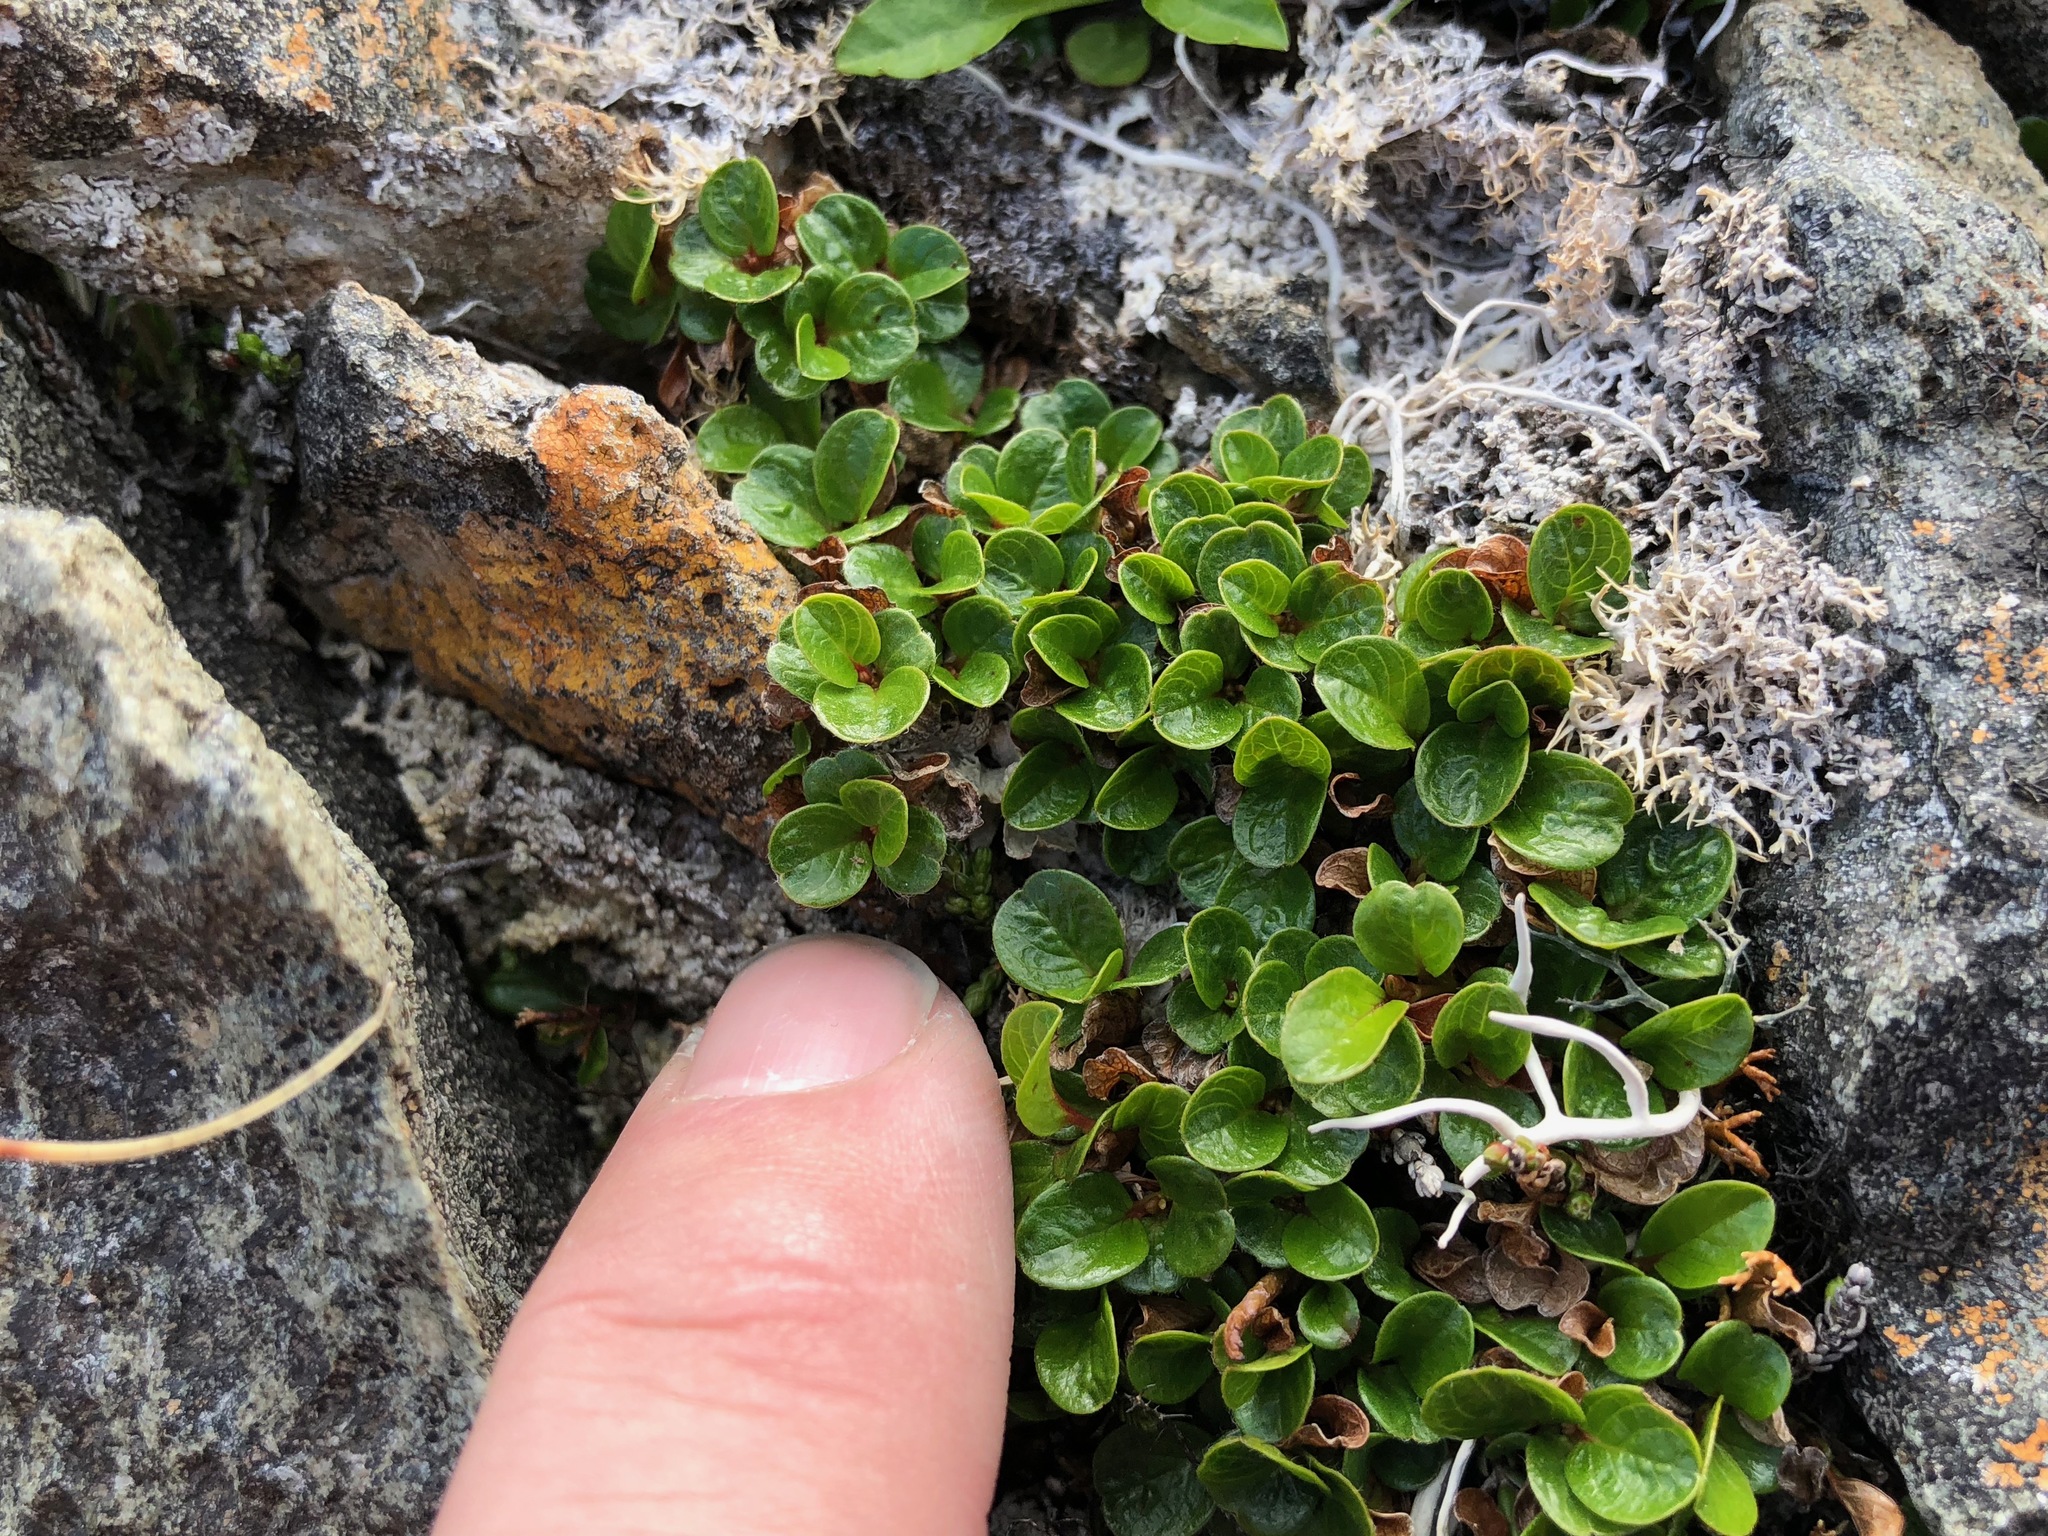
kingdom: Plantae
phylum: Tracheophyta
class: Magnoliopsida
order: Malpighiales
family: Salicaceae
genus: Salix
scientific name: Salix rotundifolia
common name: Least willow
